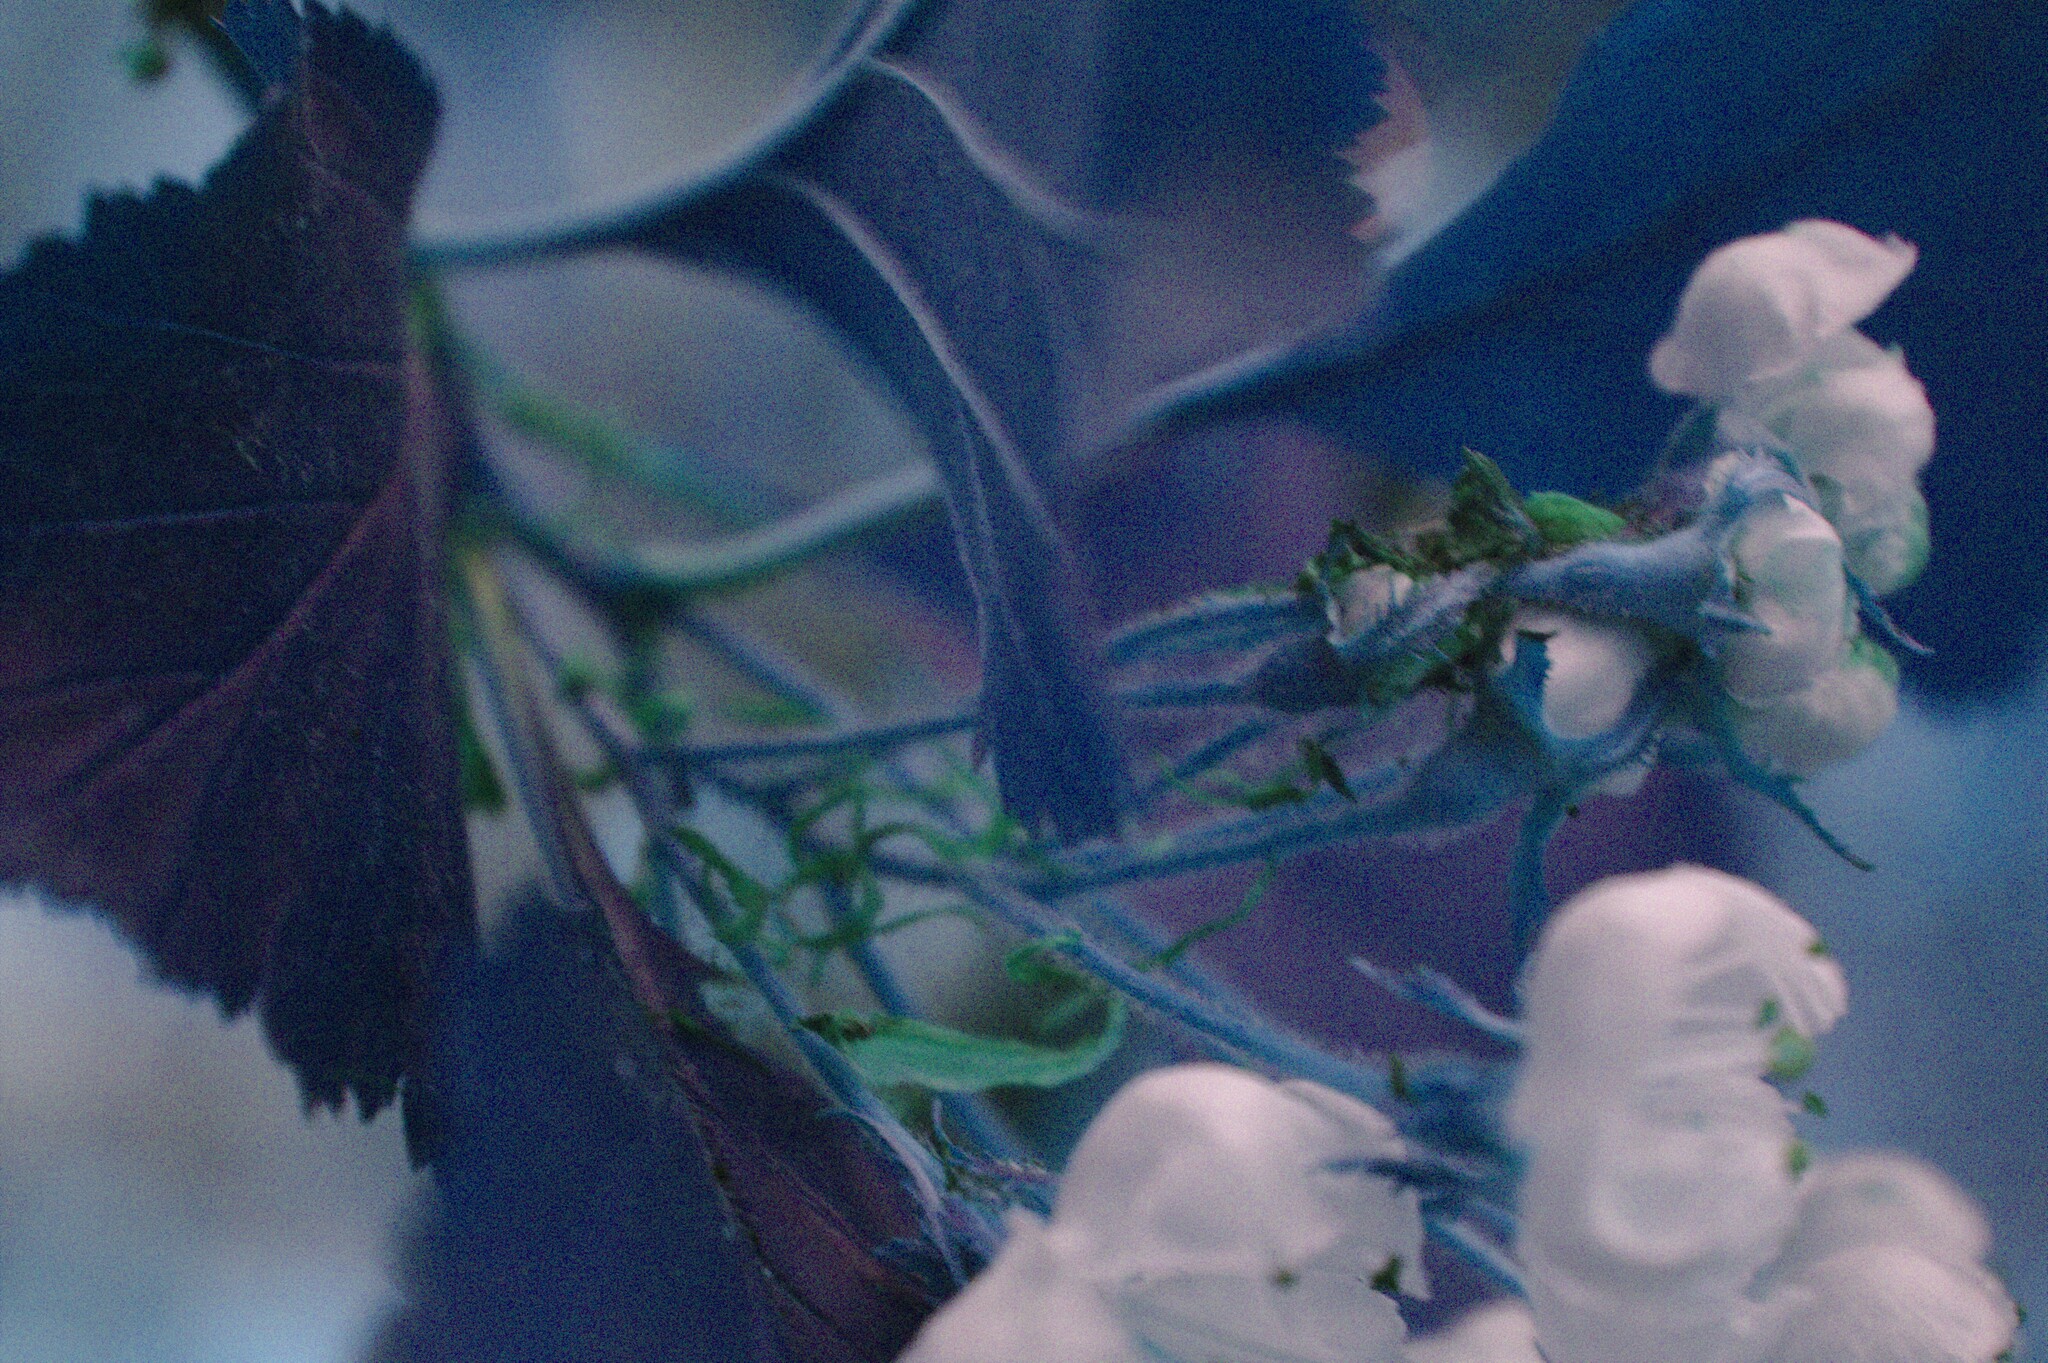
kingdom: Plantae
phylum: Tracheophyta
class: Magnoliopsida
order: Rosales
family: Rosaceae
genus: Crataegus
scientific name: Crataegus macracantha
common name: Large-thorn hawthorn
